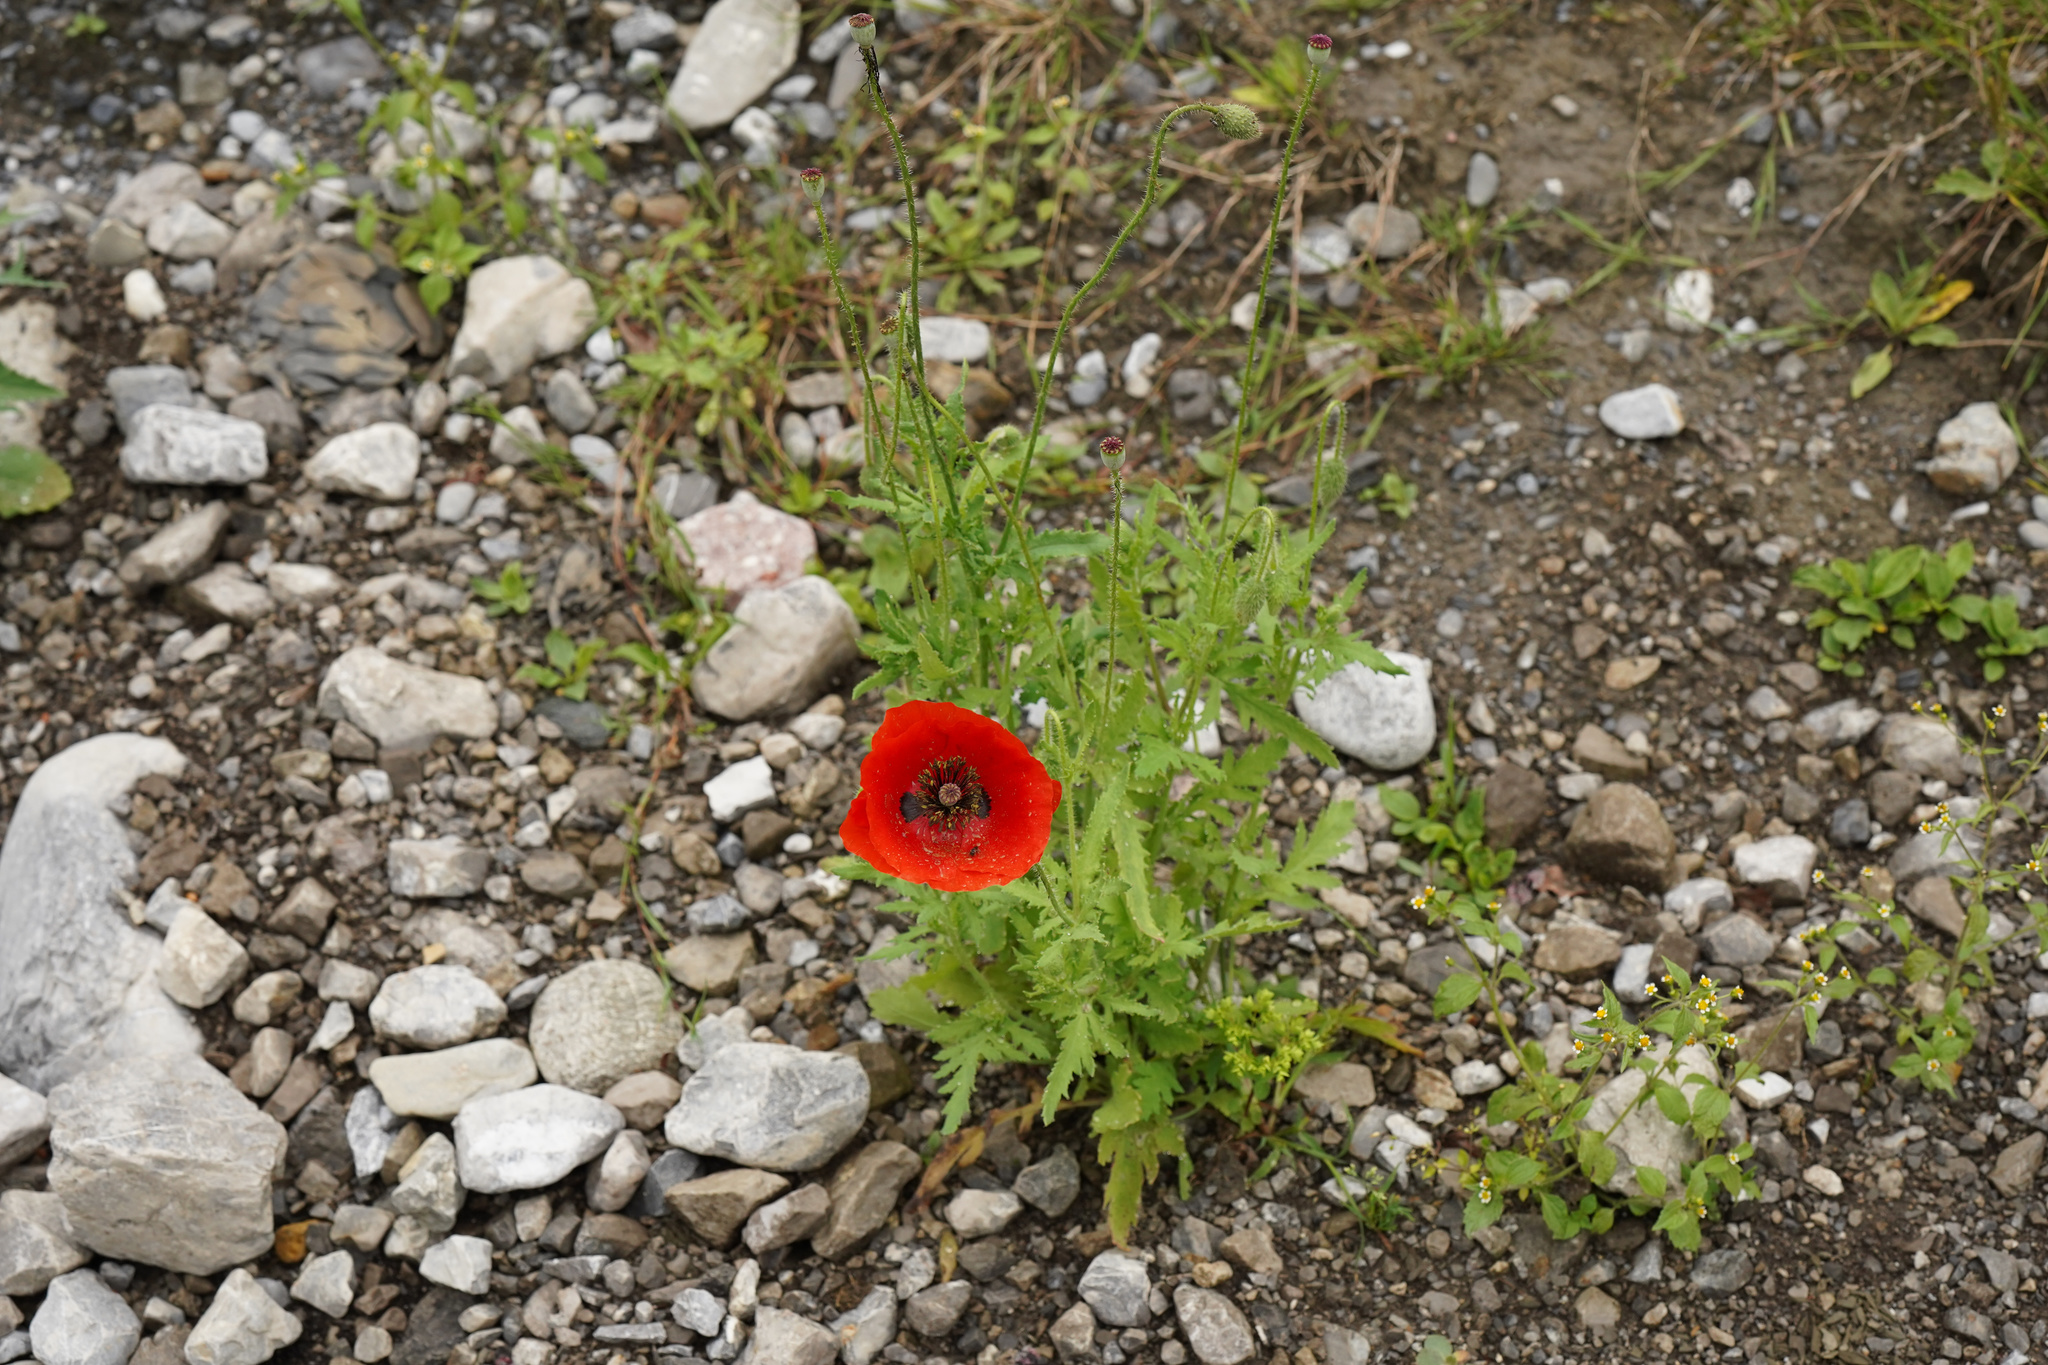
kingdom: Plantae
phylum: Tracheophyta
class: Magnoliopsida
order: Ranunculales
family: Papaveraceae
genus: Papaver
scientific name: Papaver rhoeas
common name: Corn poppy
